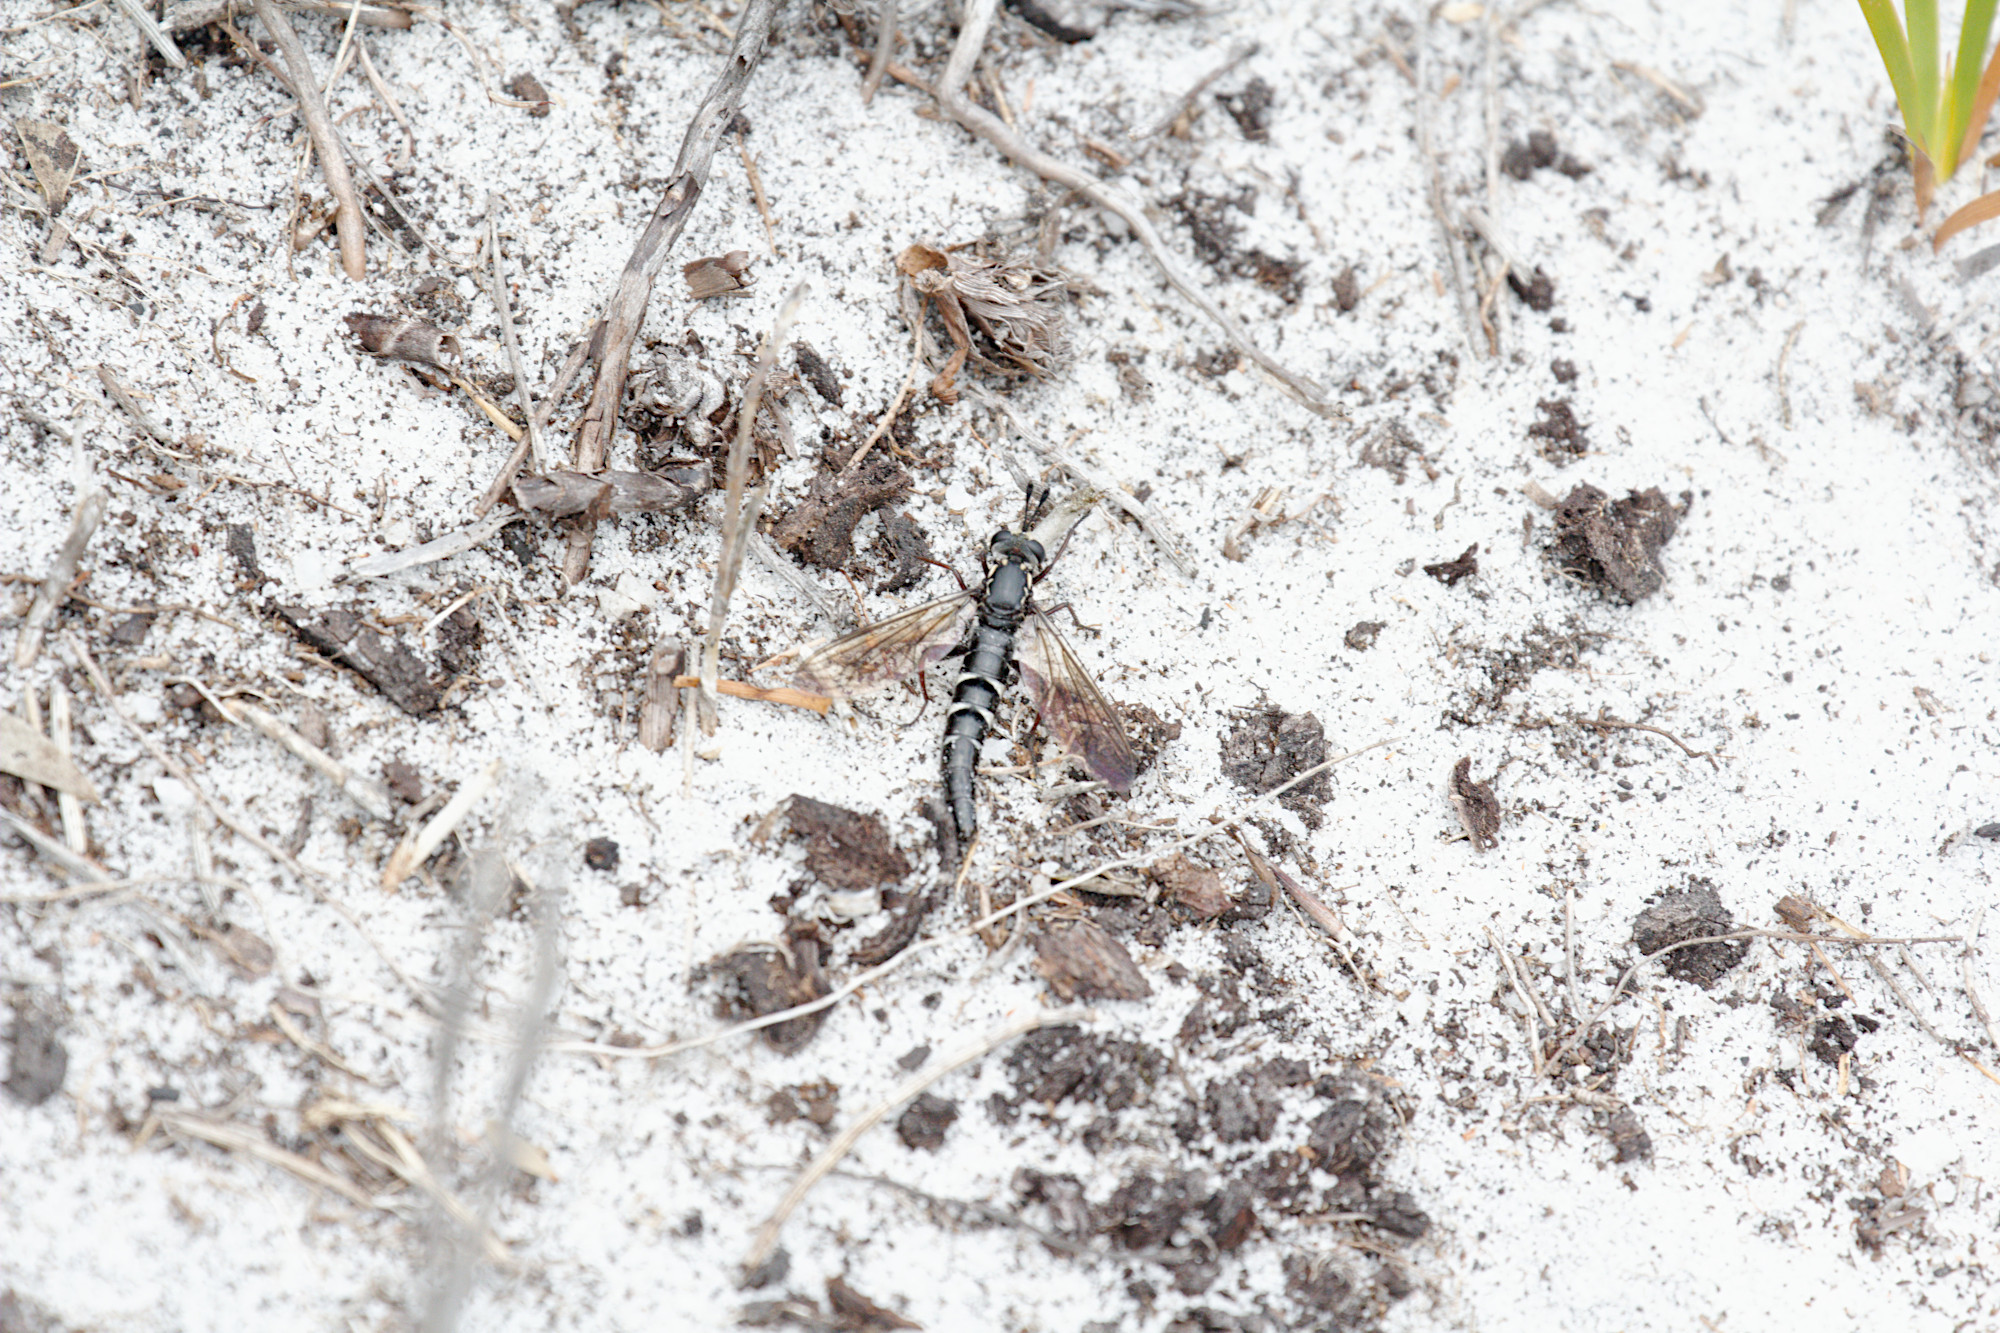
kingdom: Animalia
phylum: Arthropoda
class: Insecta
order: Diptera
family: Mydidae
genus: Miltinus
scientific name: Miltinus viduatus
